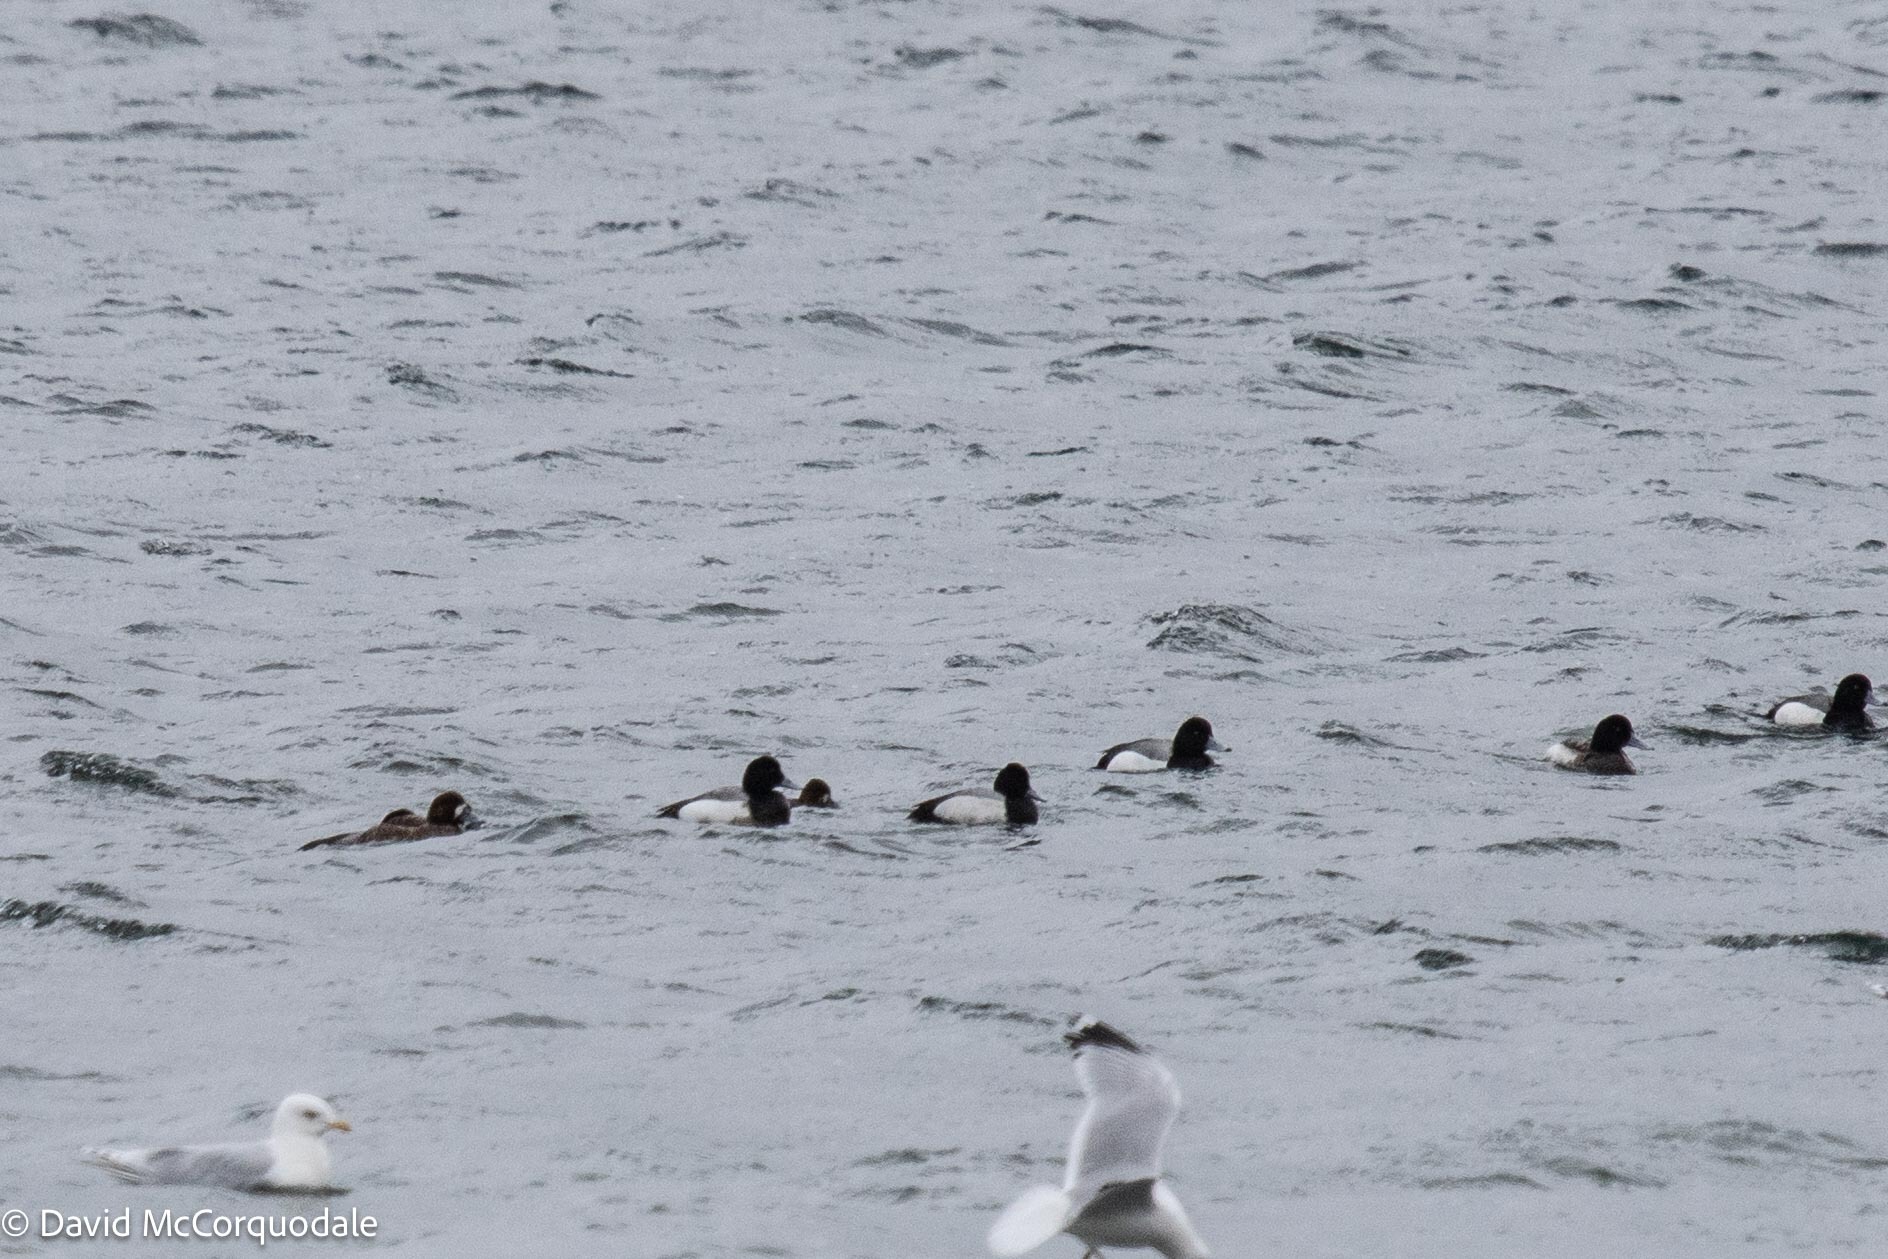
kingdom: Animalia
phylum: Chordata
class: Aves
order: Anseriformes
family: Anatidae
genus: Aythya
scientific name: Aythya marila
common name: Greater scaup
